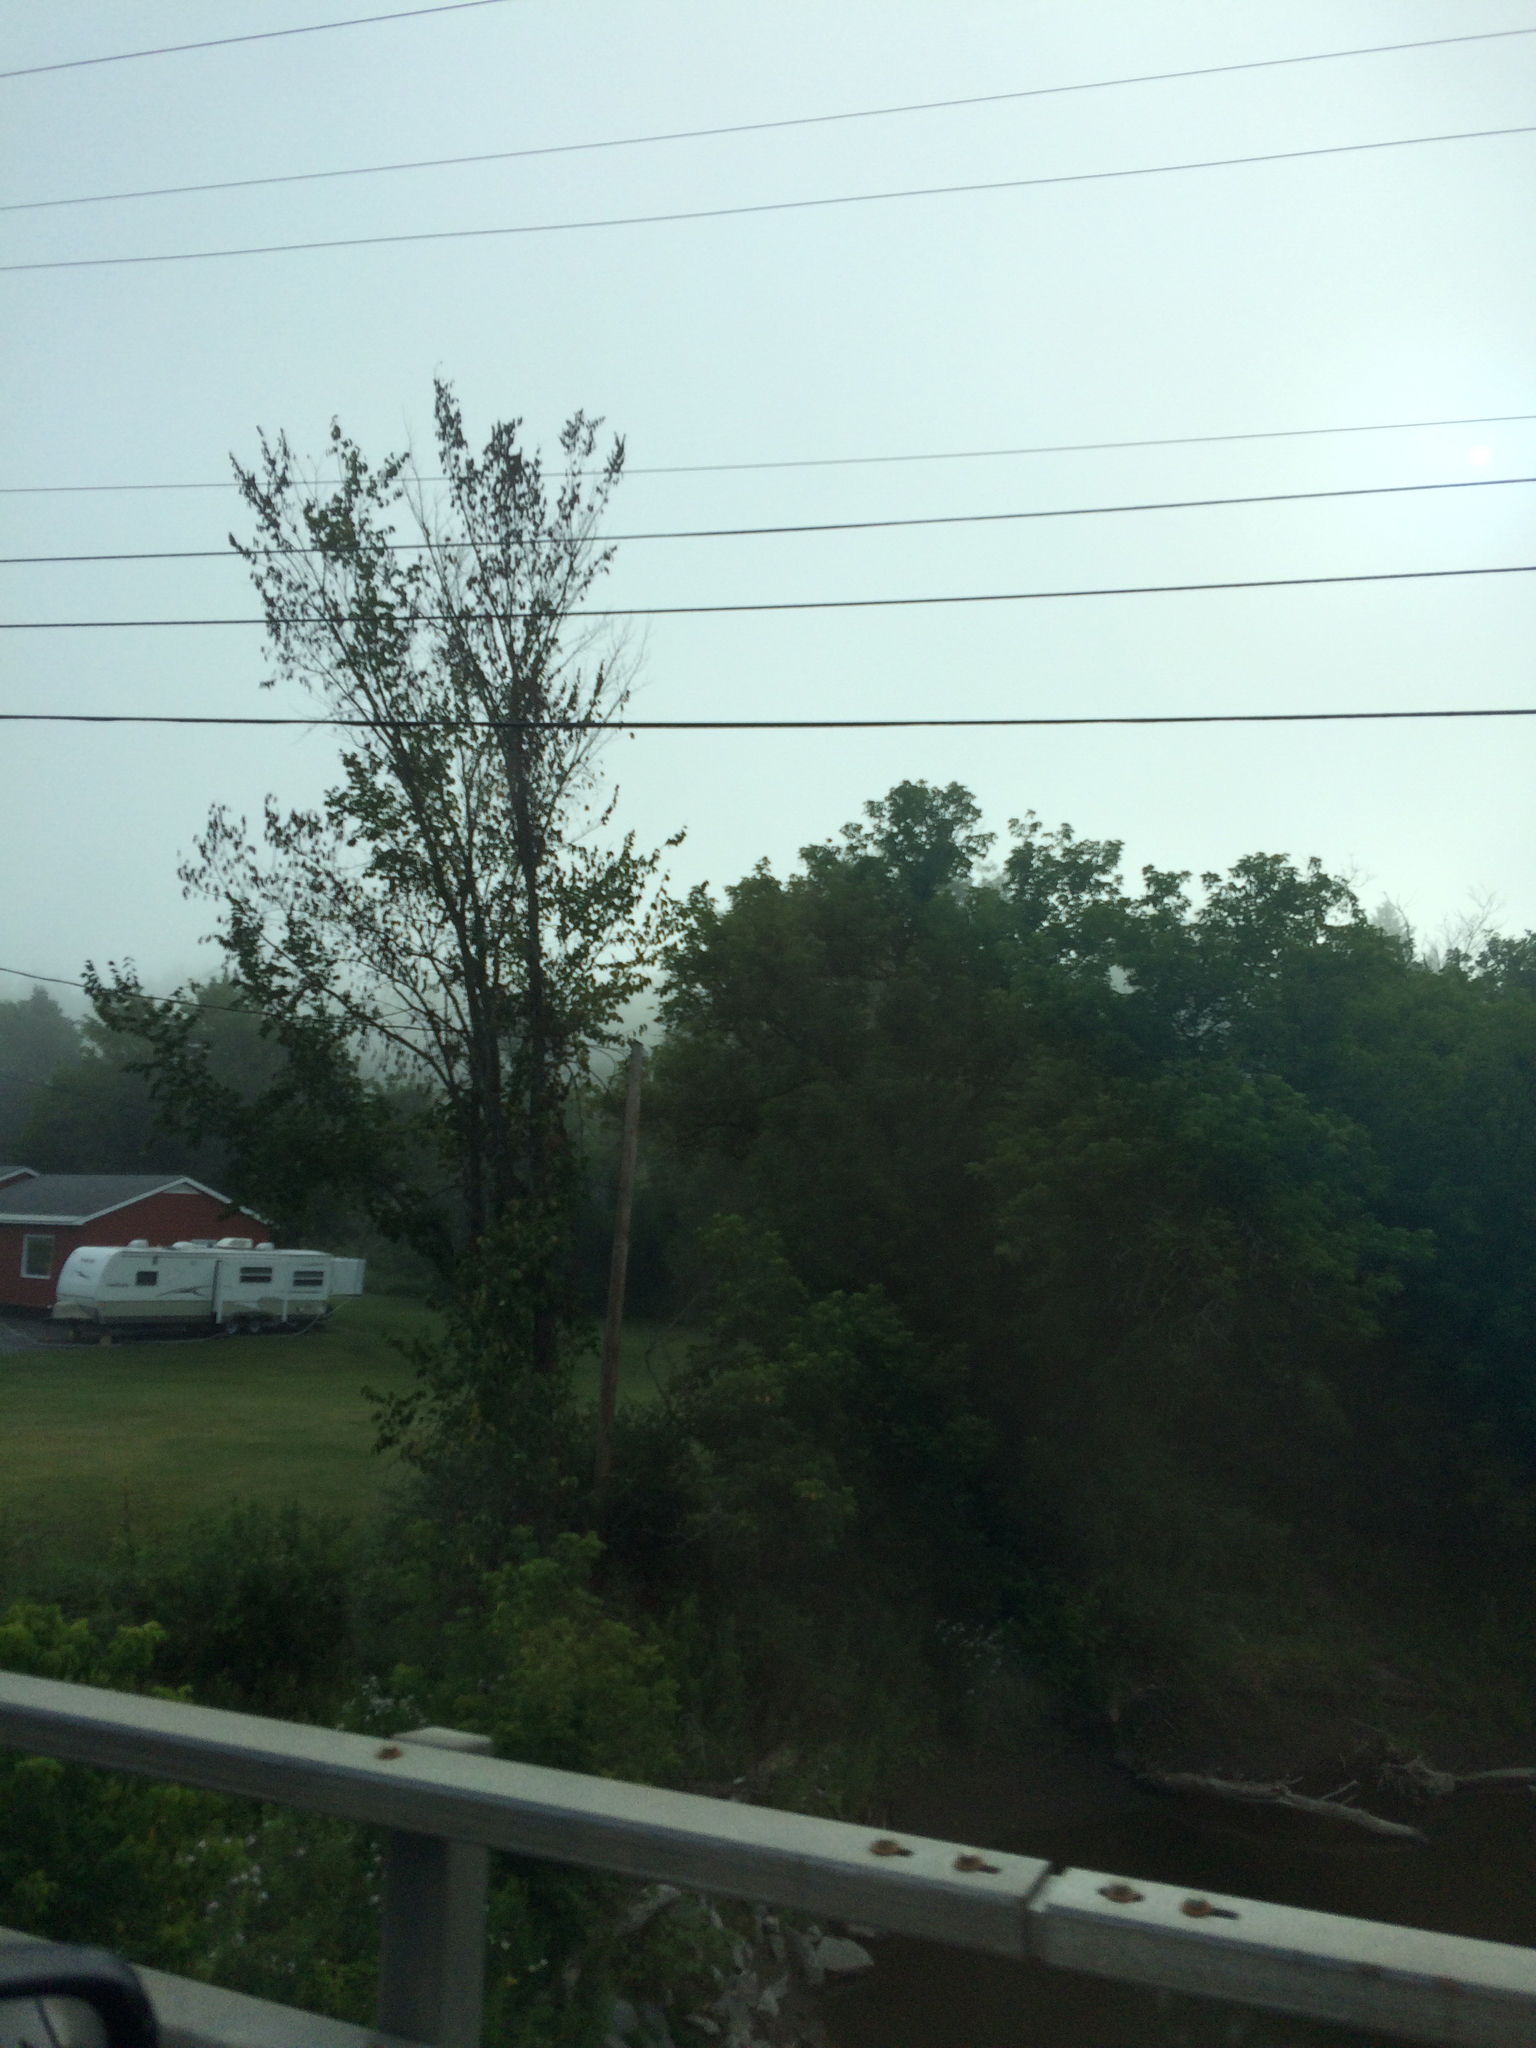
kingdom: Plantae
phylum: Tracheophyta
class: Magnoliopsida
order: Rosales
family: Ulmaceae
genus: Ulmus
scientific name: Ulmus americana
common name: American elm
